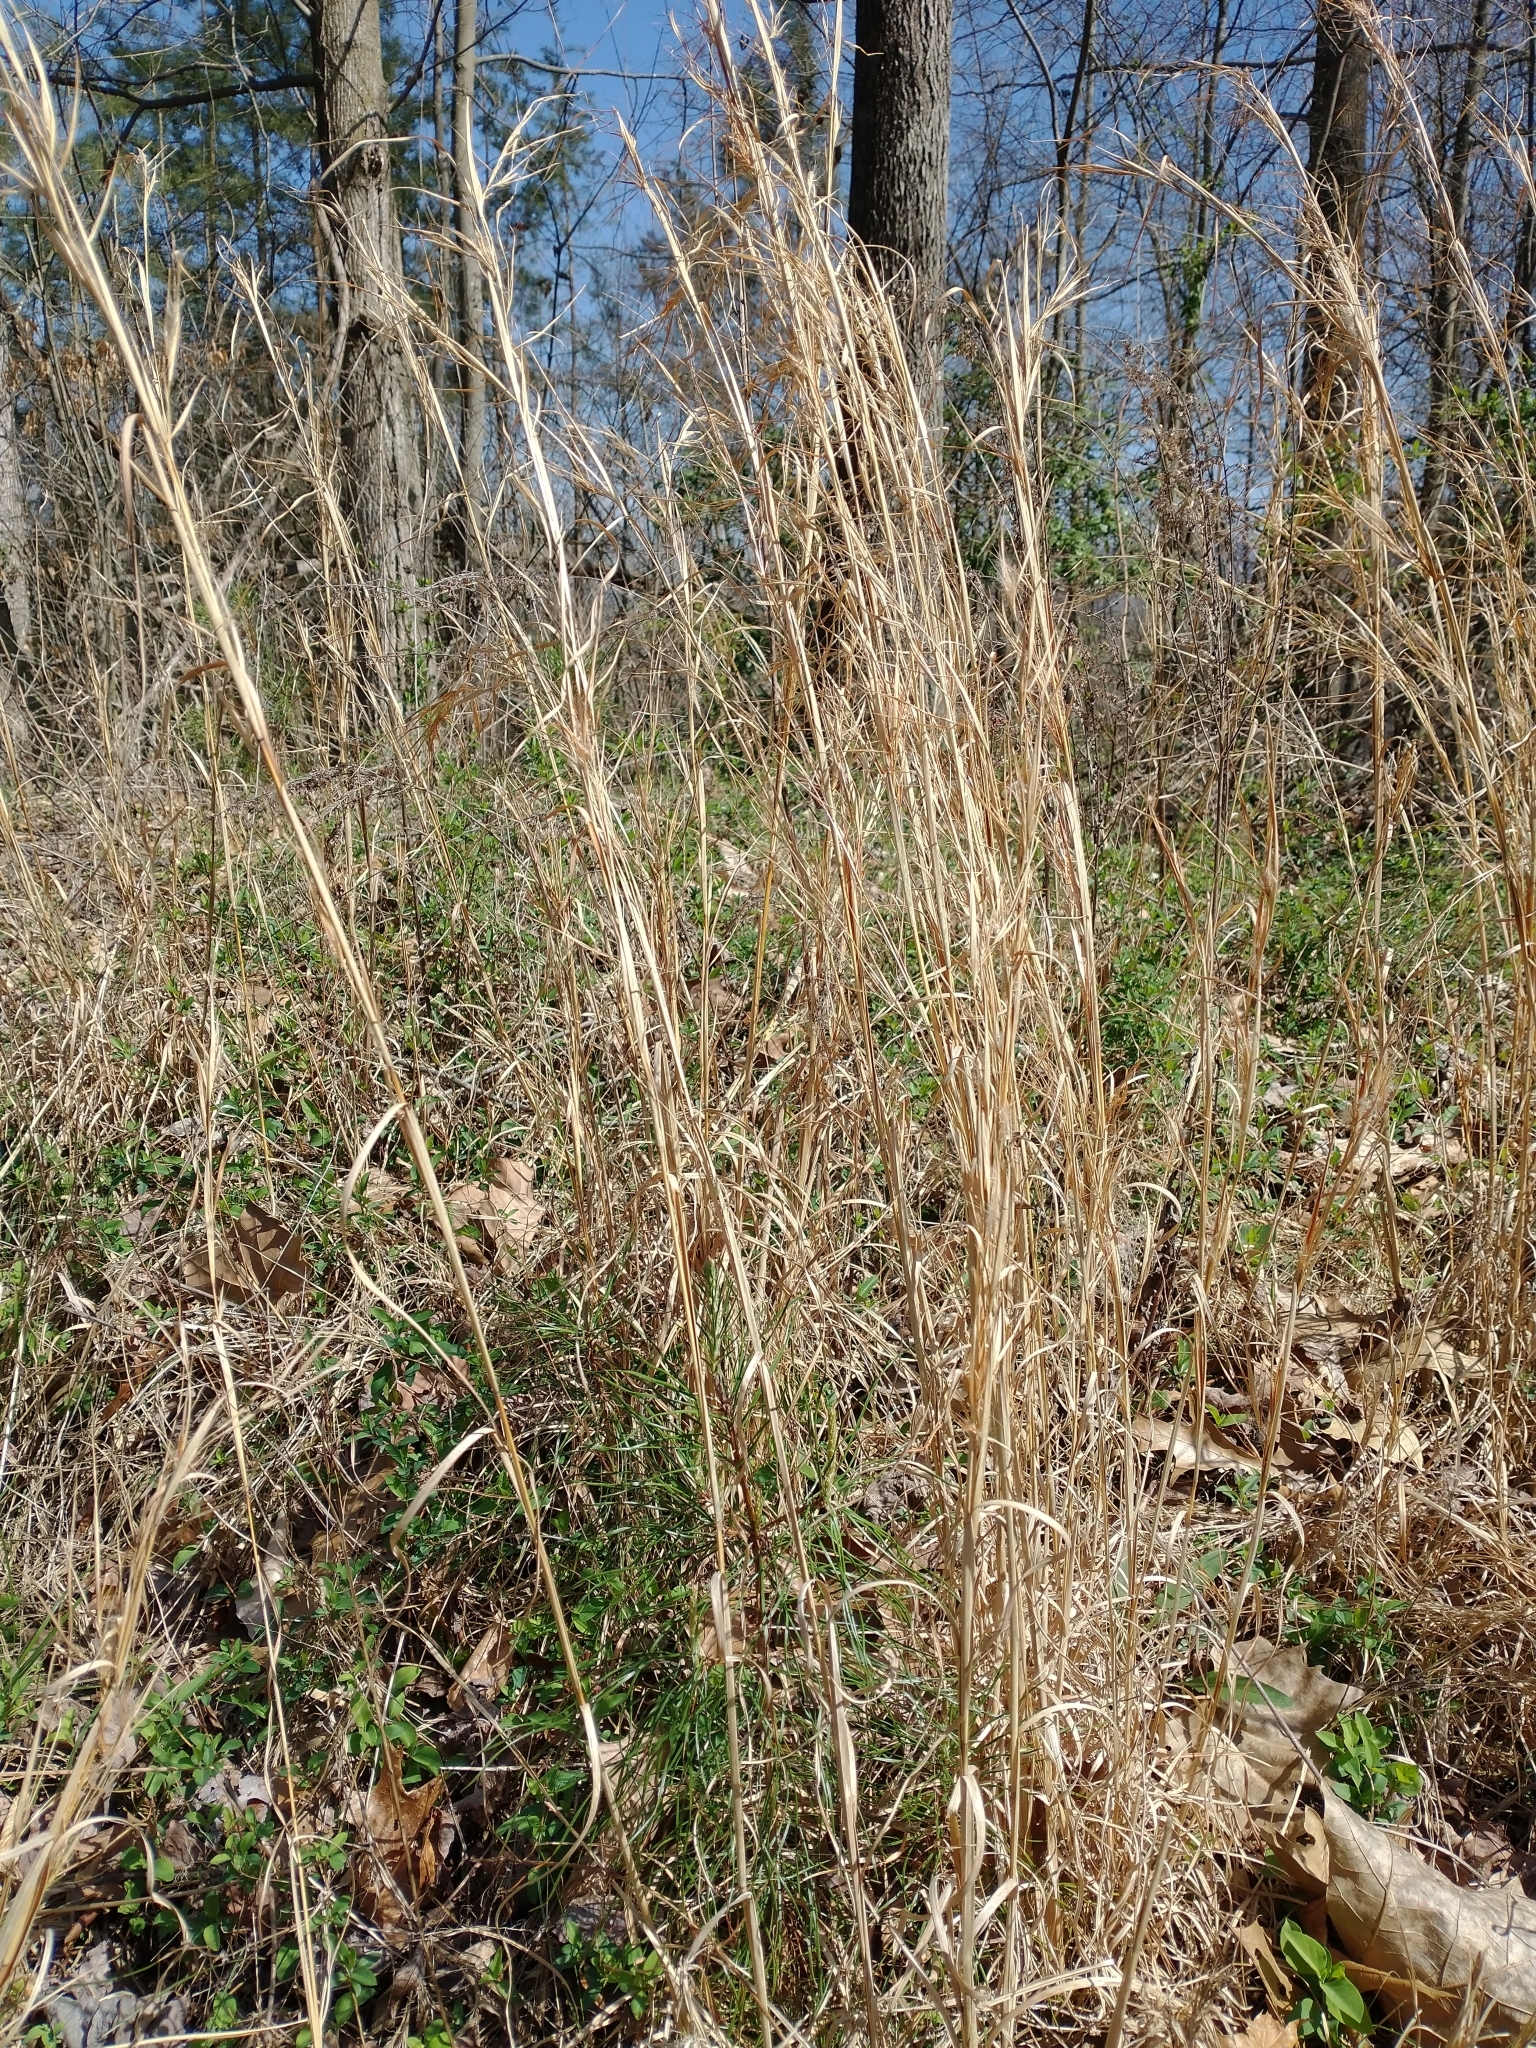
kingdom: Plantae
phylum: Tracheophyta
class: Liliopsida
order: Poales
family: Poaceae
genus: Andropogon
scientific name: Andropogon virginicus
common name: Broomsedge bluestem
